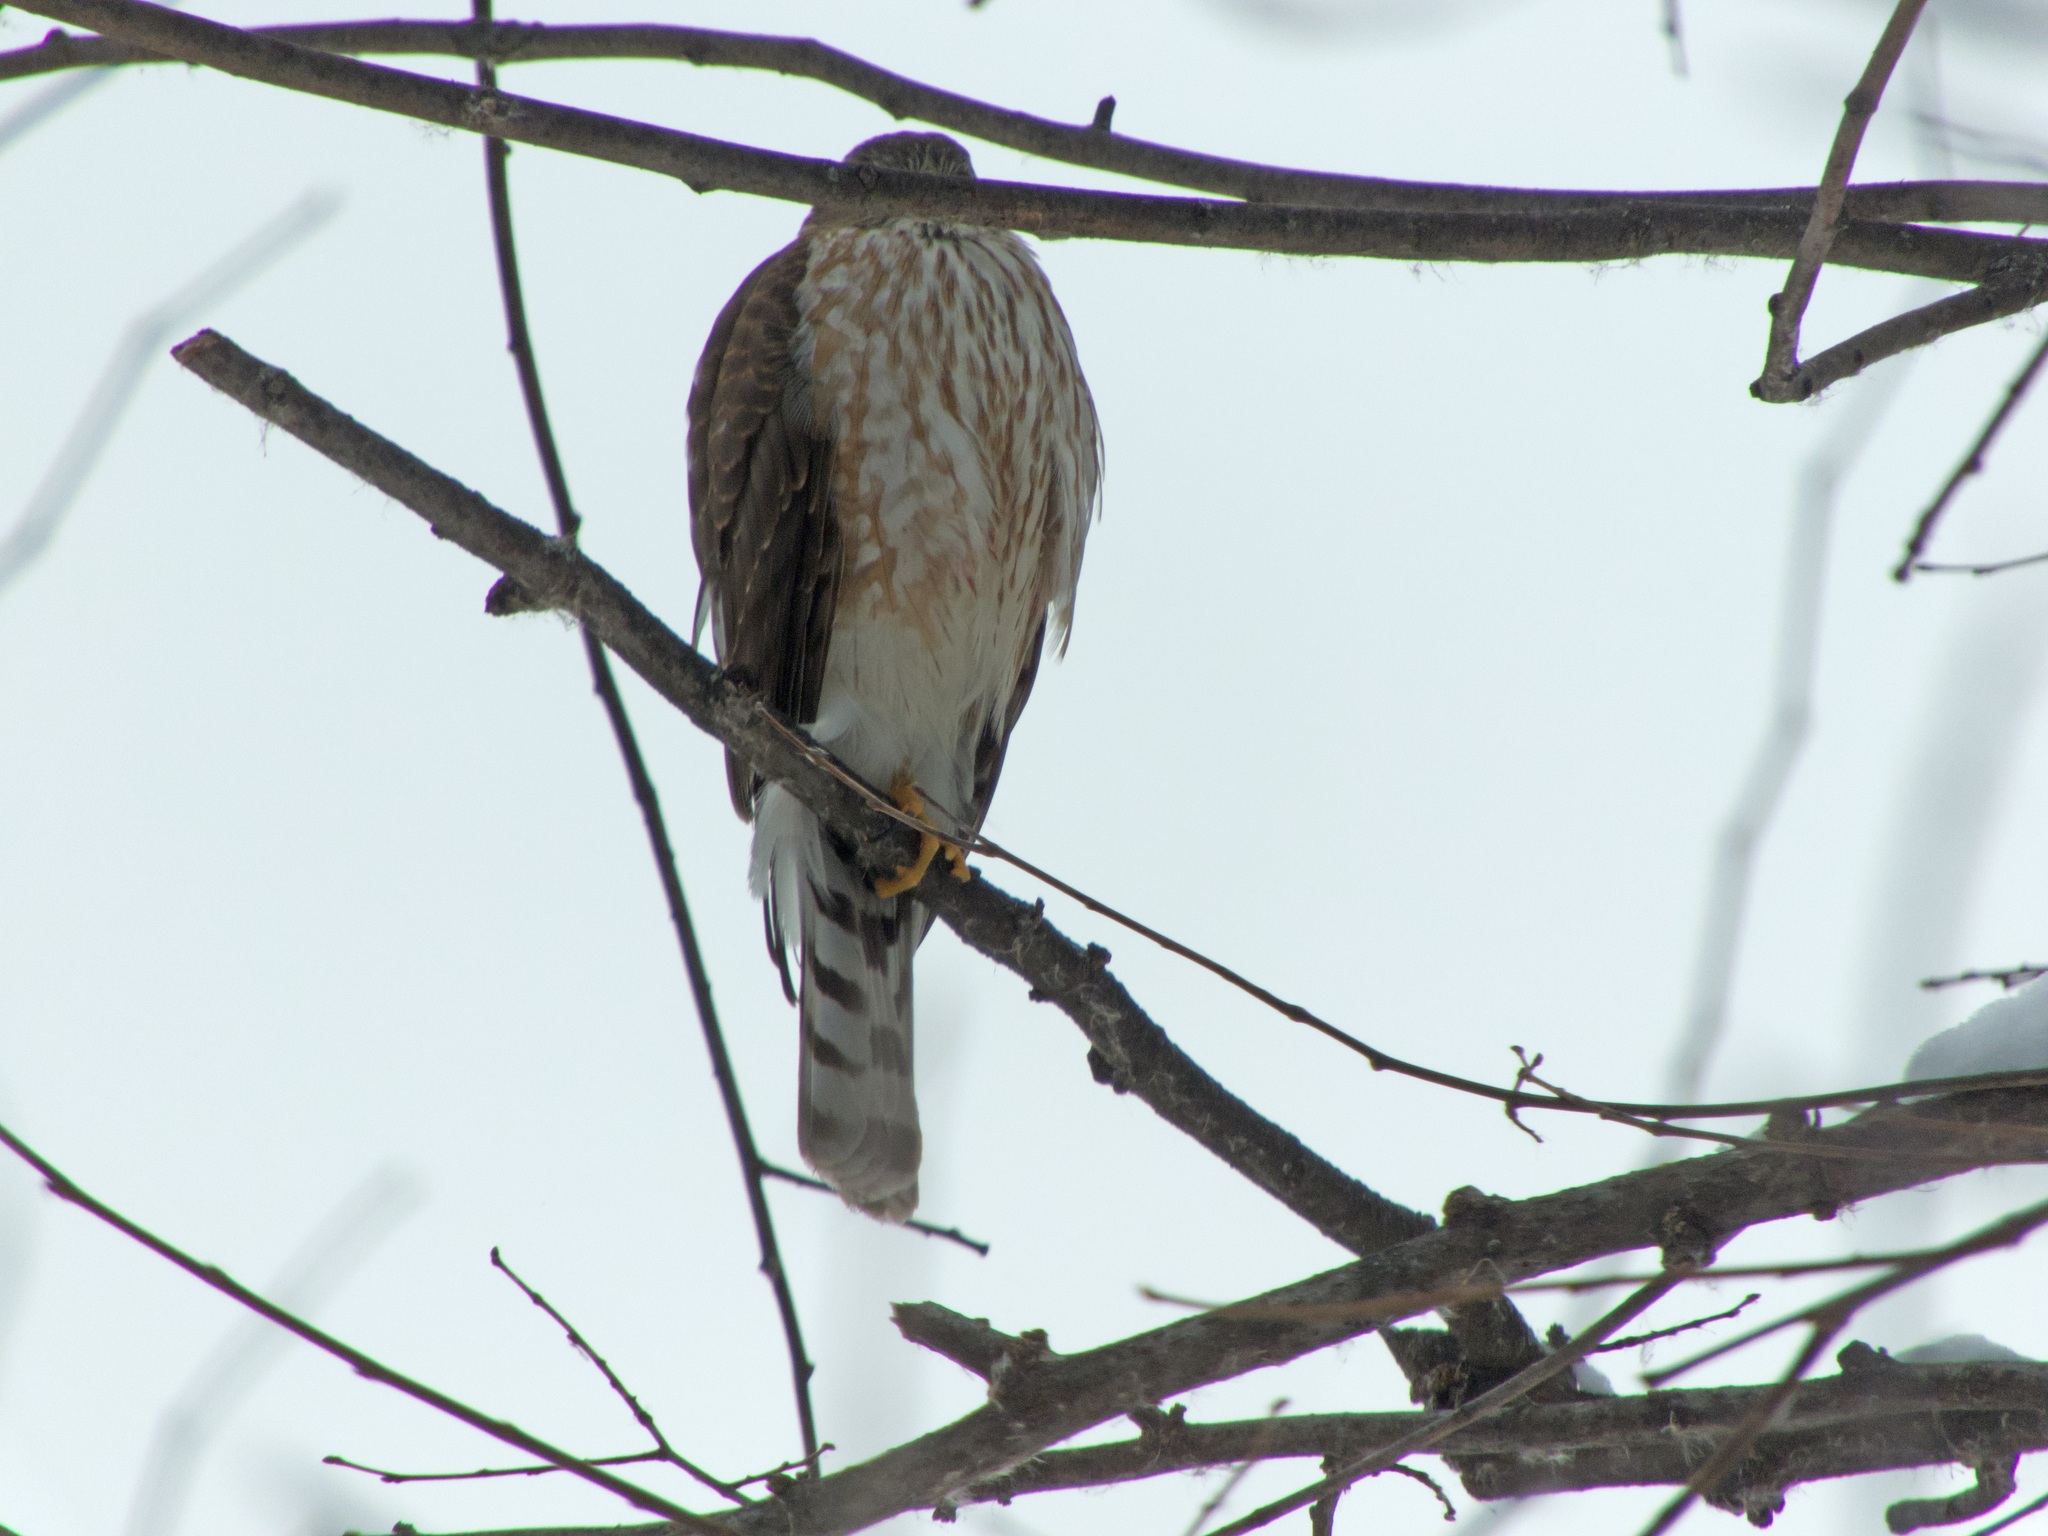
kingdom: Animalia
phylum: Chordata
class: Aves
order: Accipitriformes
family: Accipitridae
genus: Accipiter
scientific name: Accipiter striatus
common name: Sharp-shinned hawk
